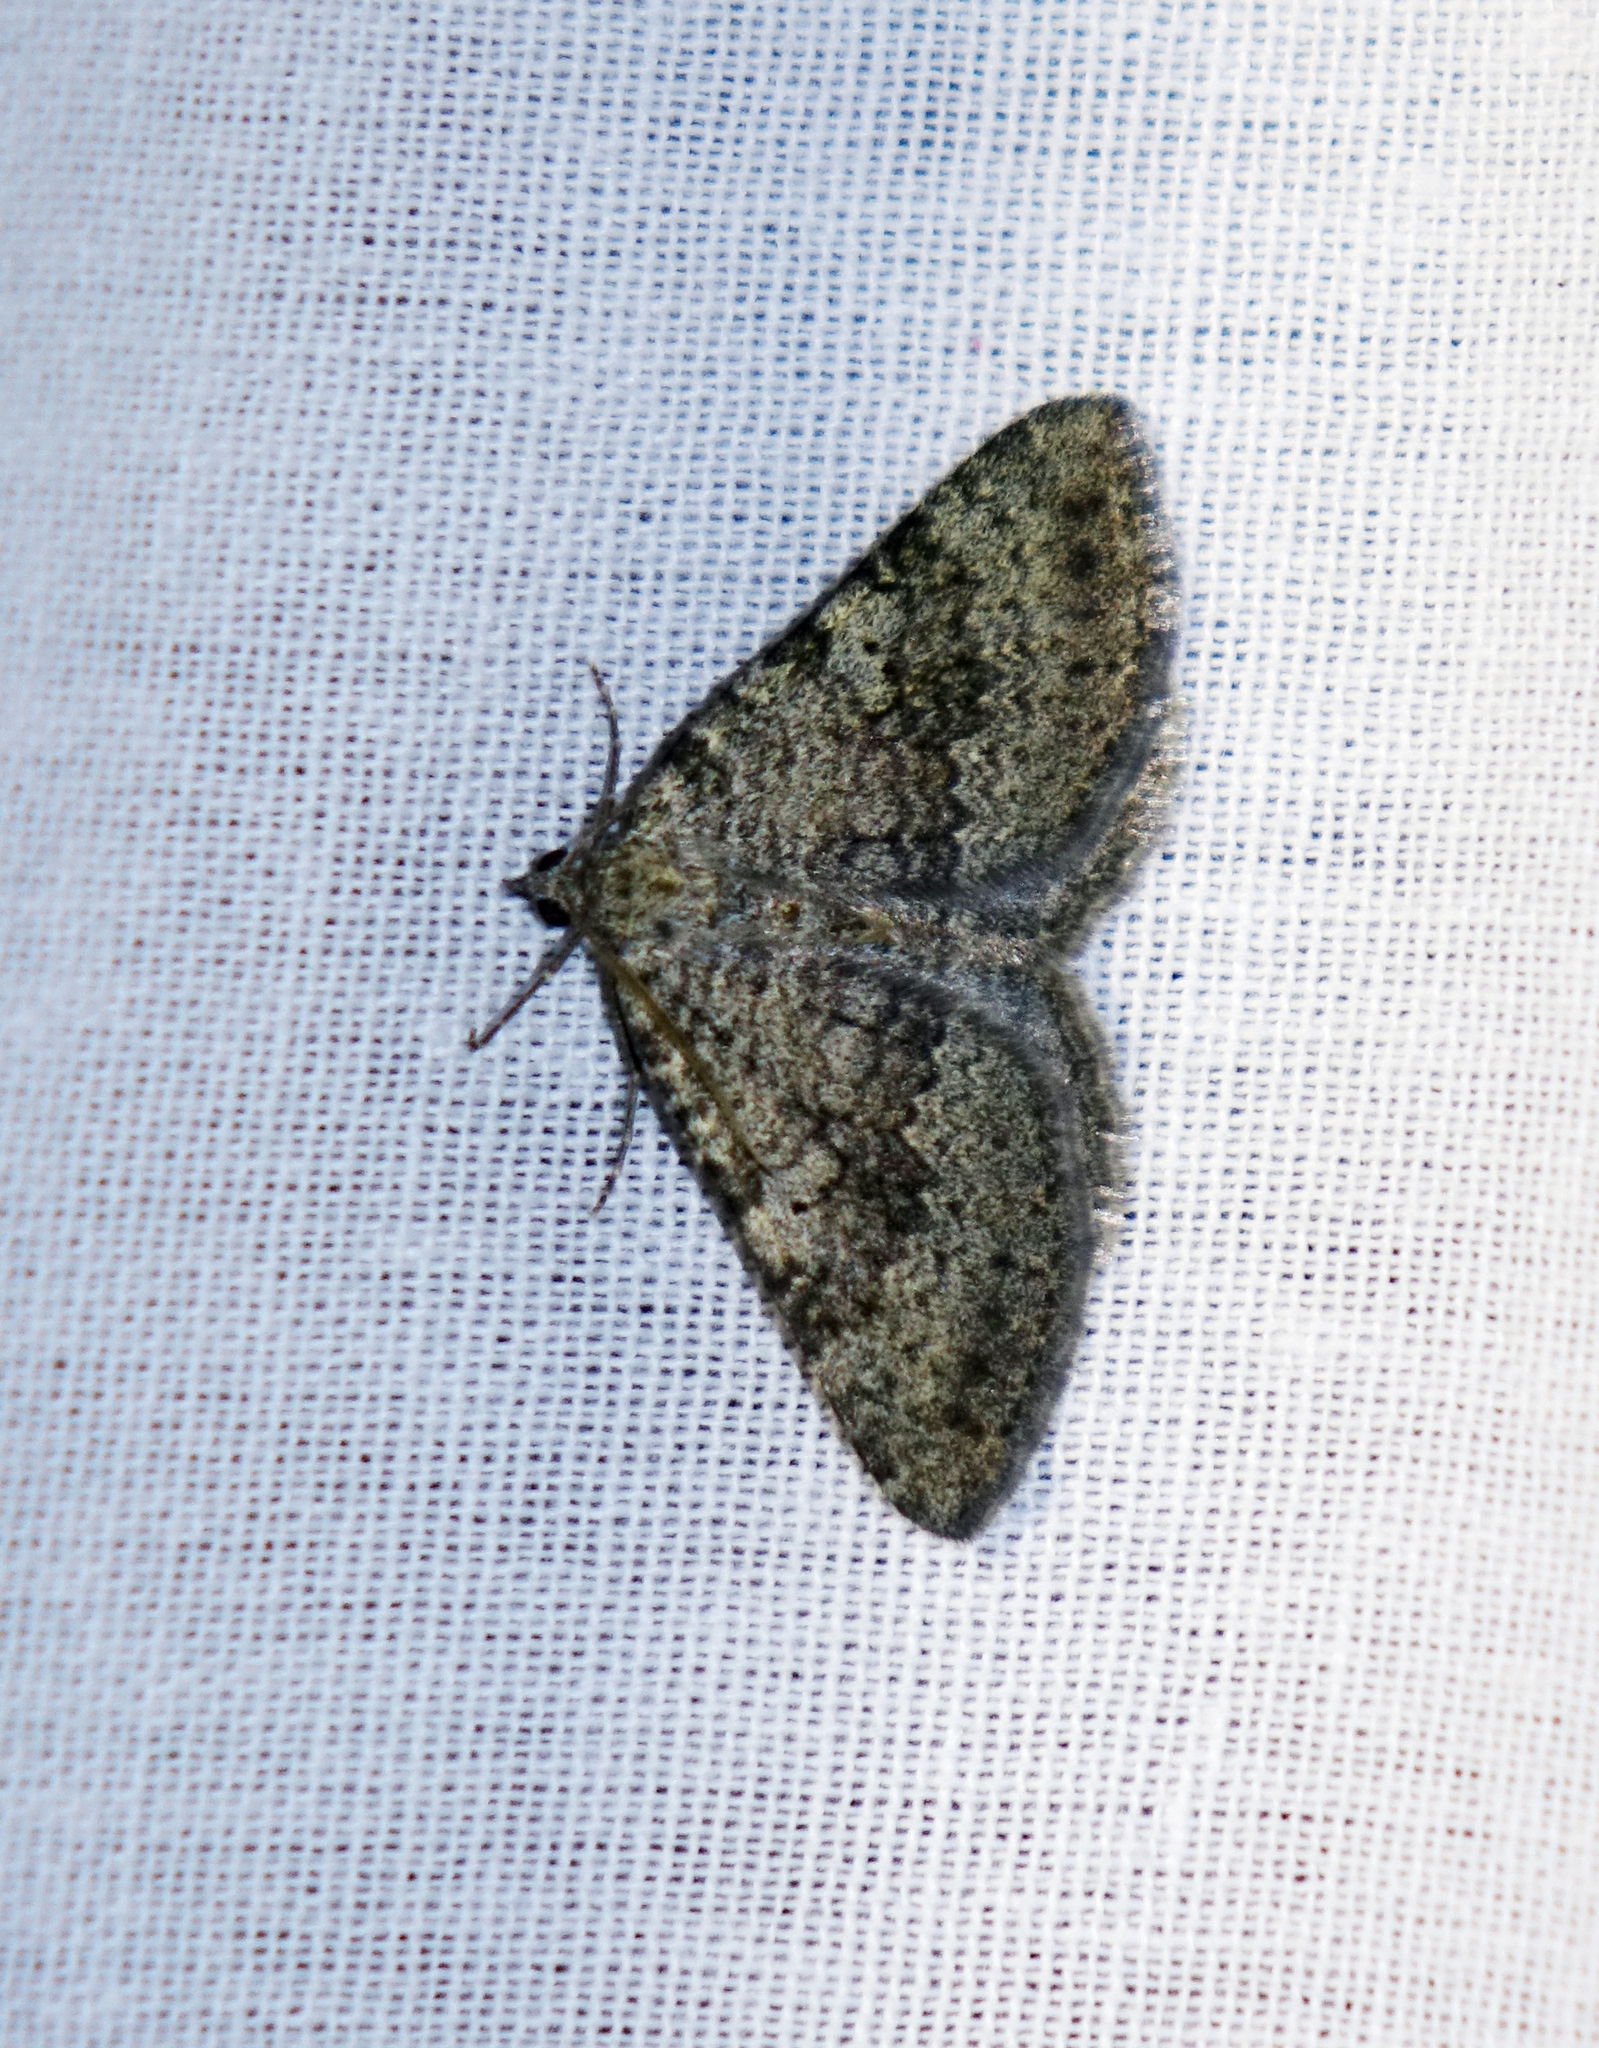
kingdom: Animalia
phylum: Arthropoda
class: Insecta
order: Lepidoptera
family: Geometridae
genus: Scotopteryx
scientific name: Scotopteryx
